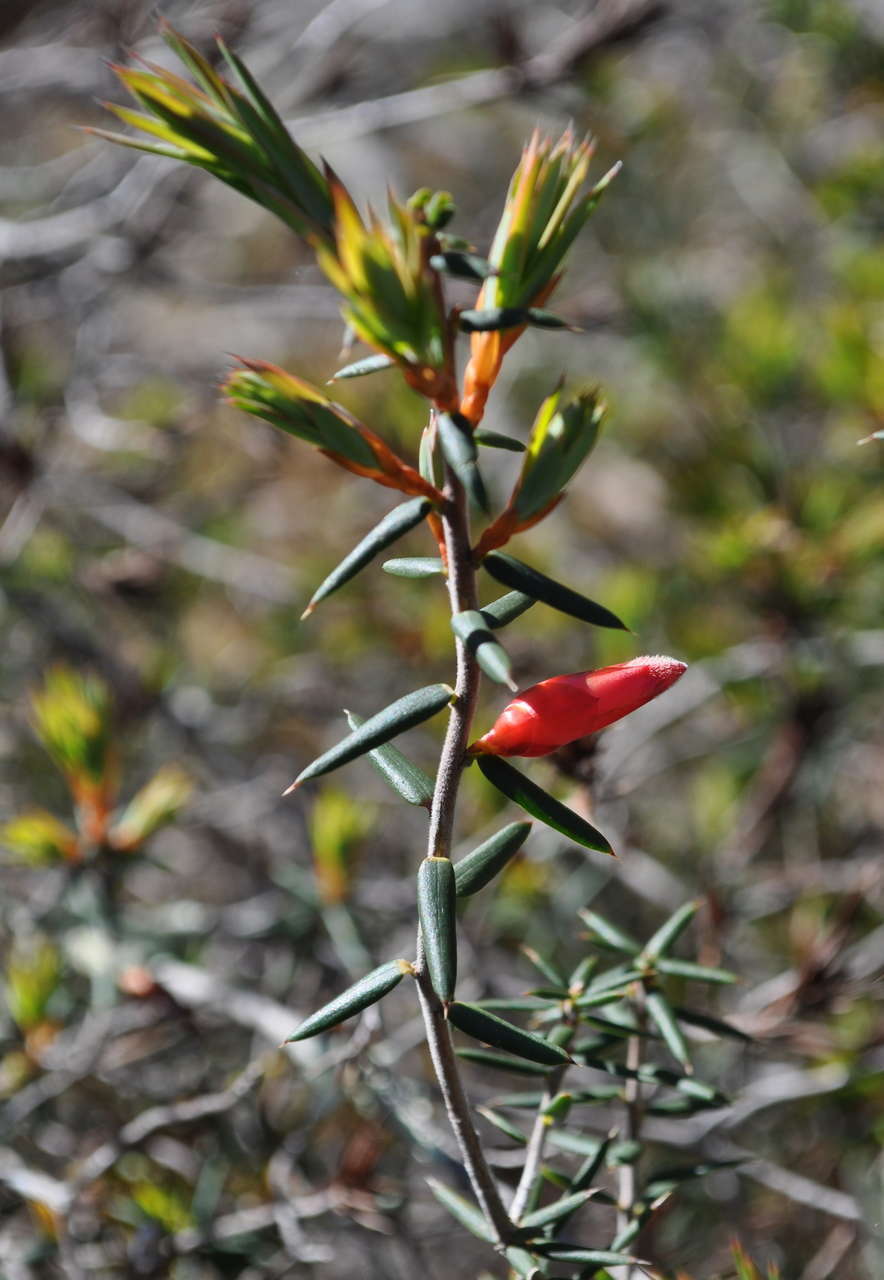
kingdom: Plantae
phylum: Tracheophyta
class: Magnoliopsida
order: Ericales
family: Ericaceae
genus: Stenanthera
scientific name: Stenanthera conostephioides
